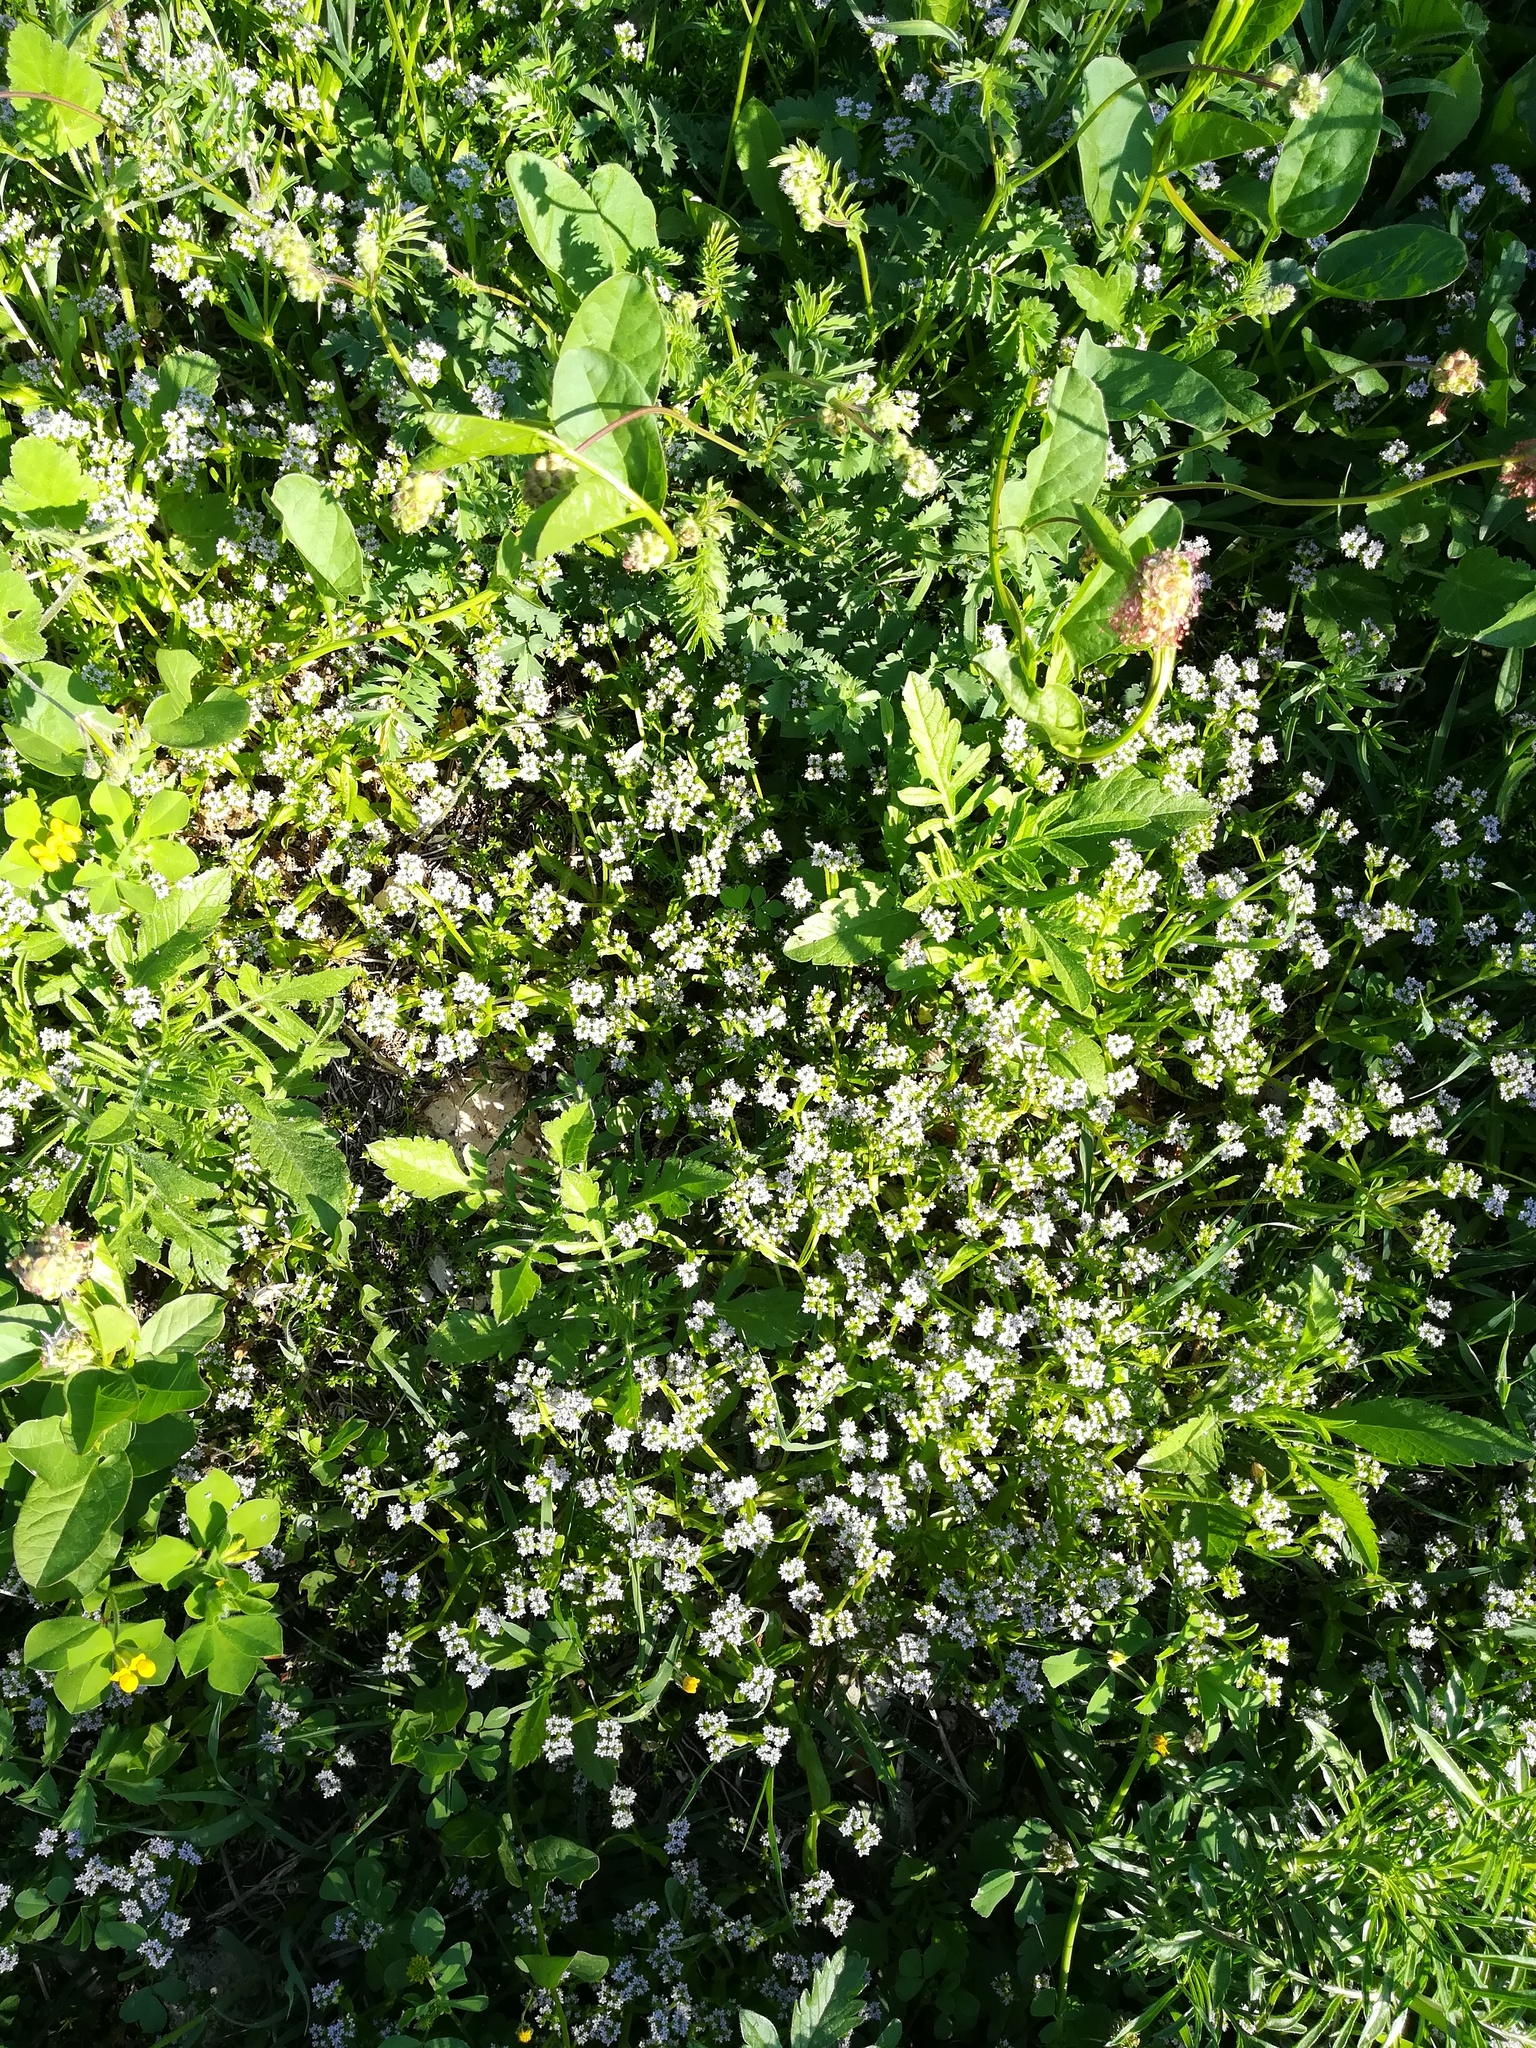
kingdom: Plantae
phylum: Tracheophyta
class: Magnoliopsida
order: Dipsacales
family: Caprifoliaceae
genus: Valerianella
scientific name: Valerianella
